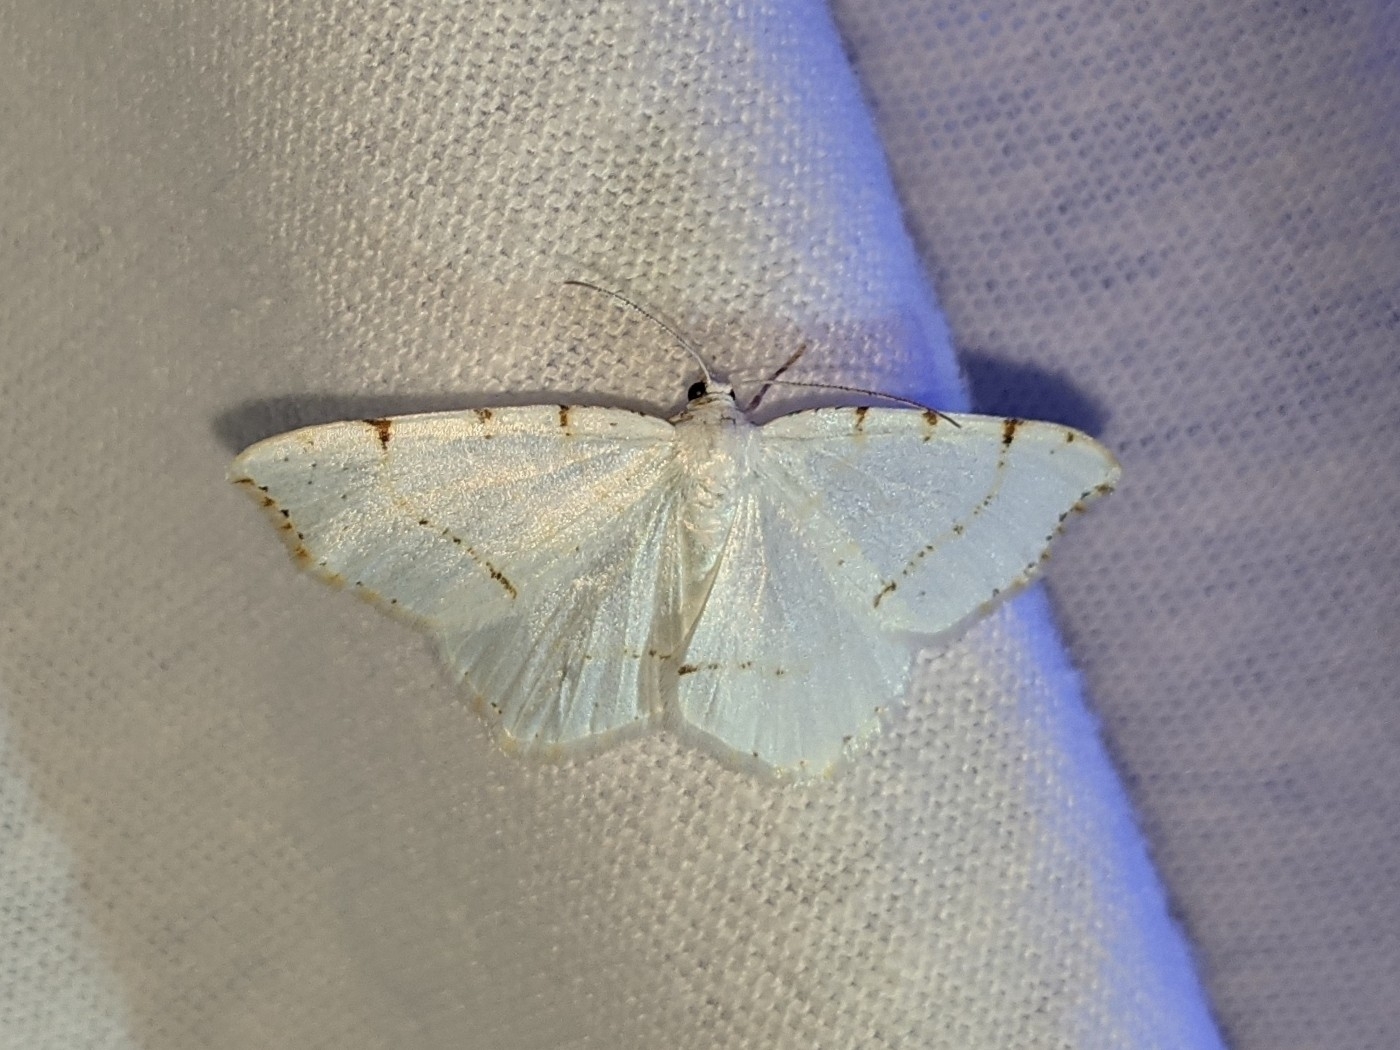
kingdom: Animalia
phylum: Arthropoda
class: Insecta
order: Lepidoptera
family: Geometridae
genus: Macaria
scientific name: Macaria pustularia
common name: Lesser maple spanworm moth
